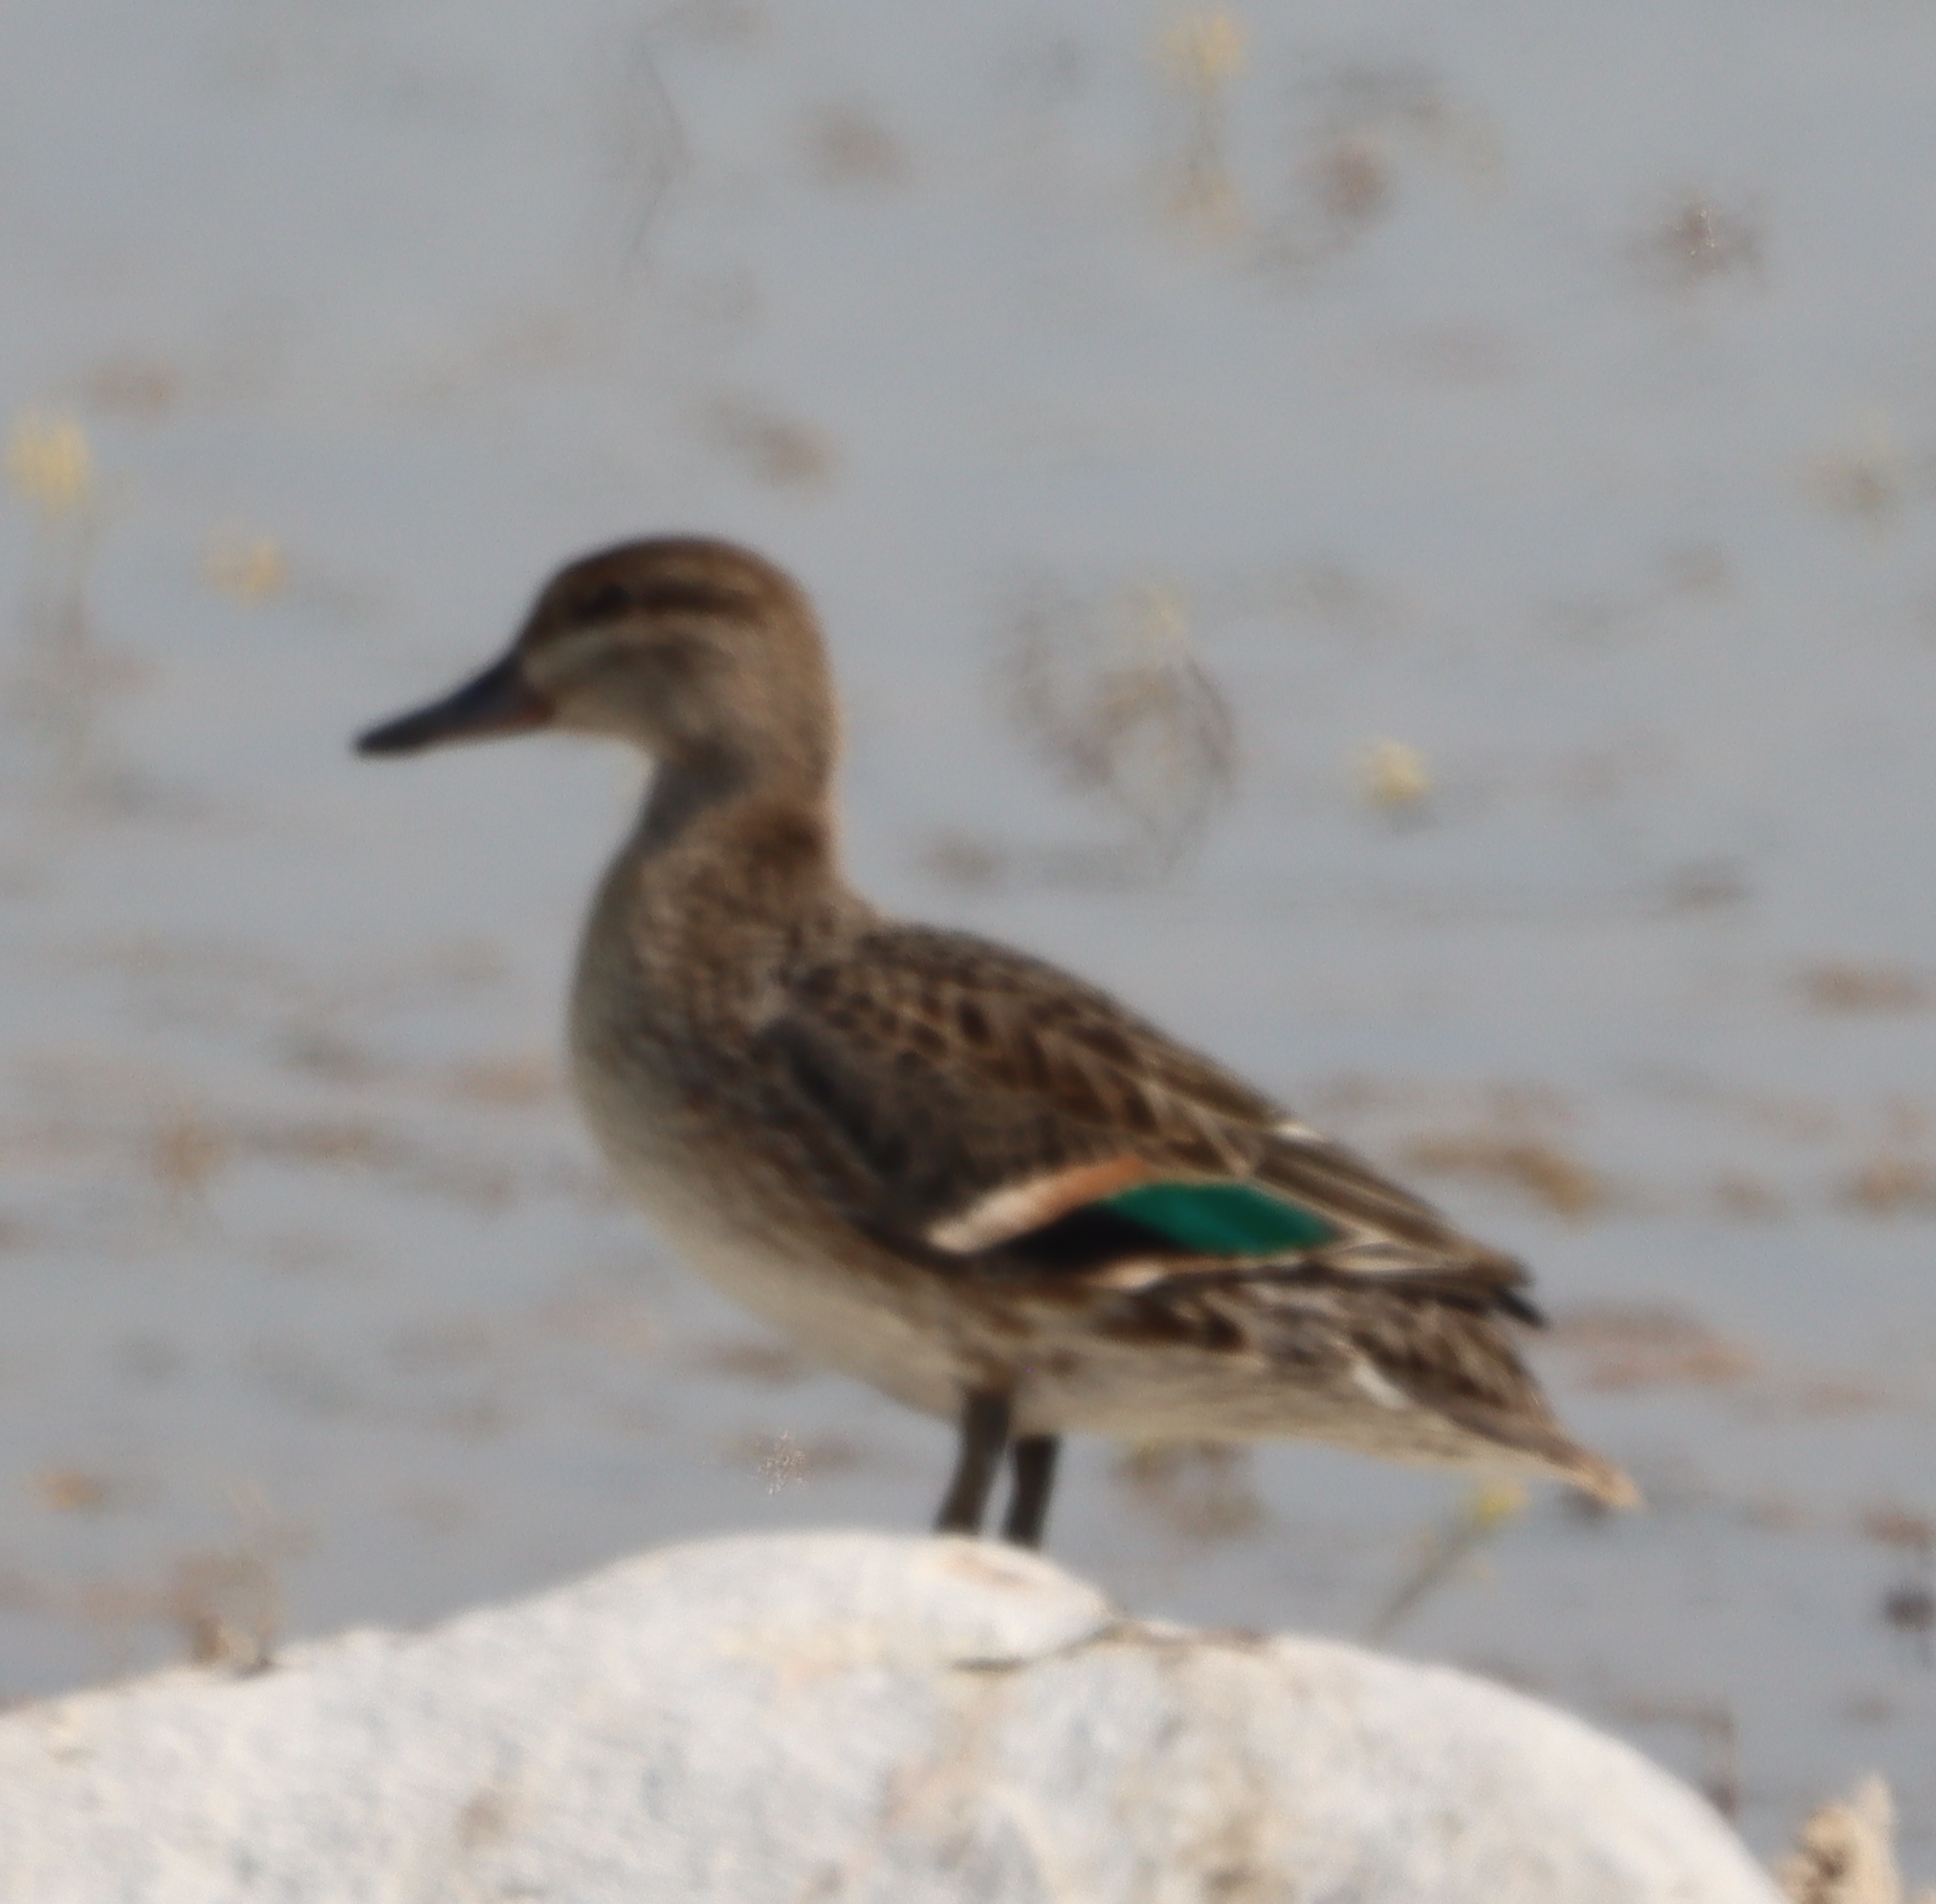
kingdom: Animalia
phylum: Chordata
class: Aves
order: Anseriformes
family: Anatidae
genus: Anas
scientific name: Anas crecca
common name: Eurasian teal
